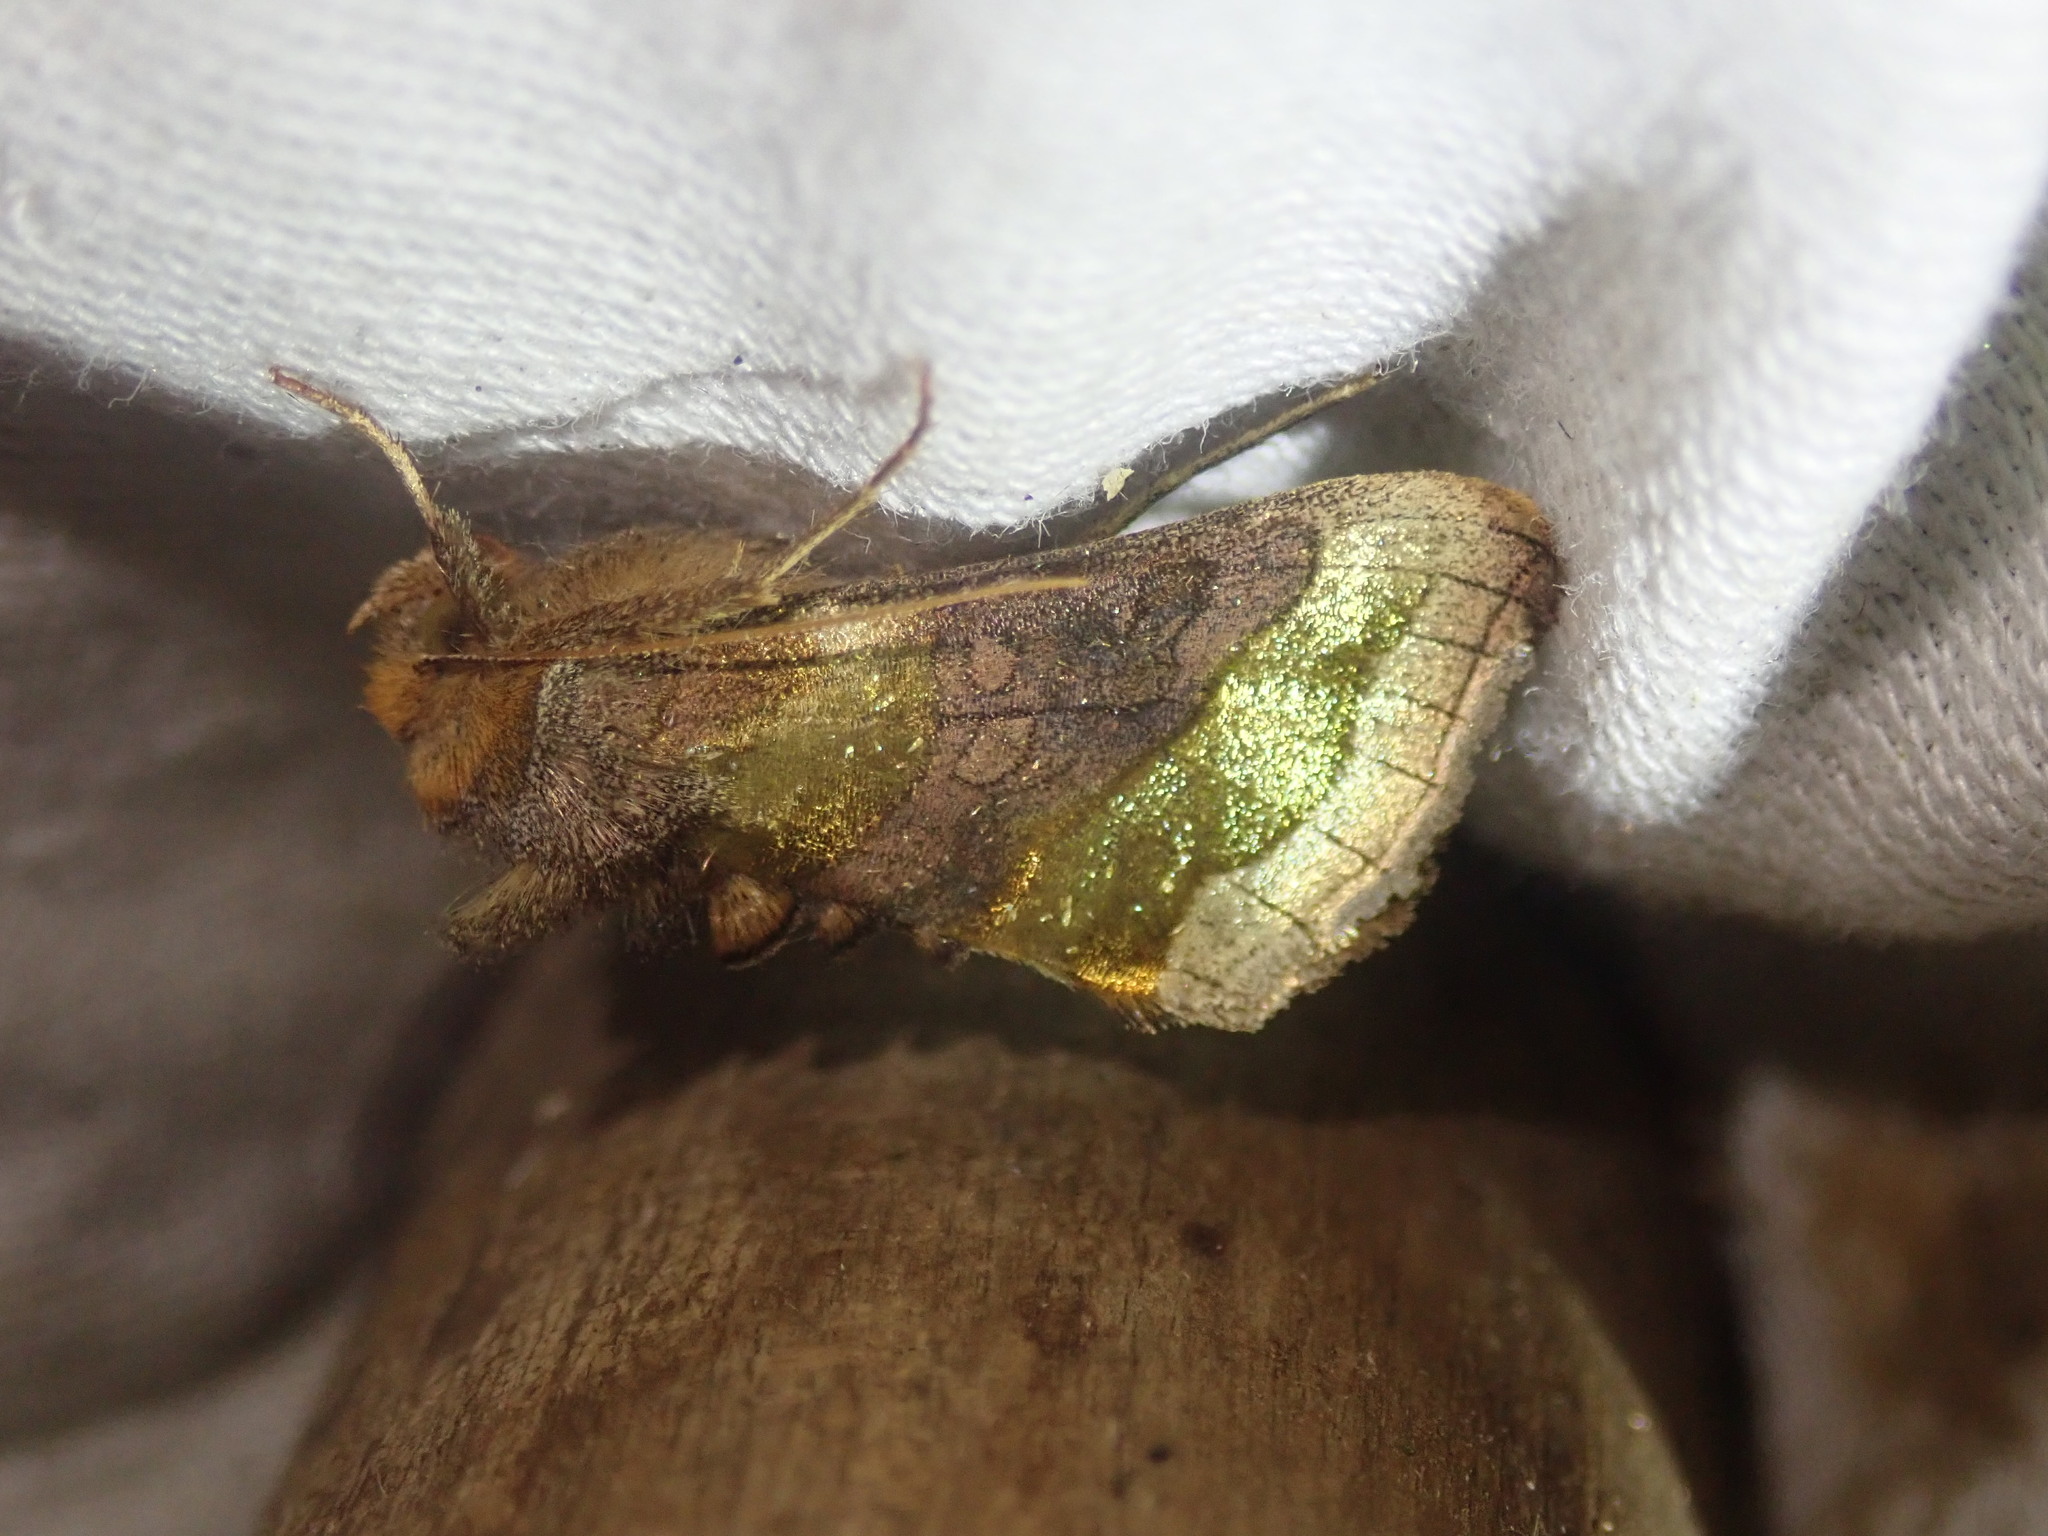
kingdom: Animalia
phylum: Arthropoda
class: Insecta
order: Lepidoptera
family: Noctuidae
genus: Diachrysia
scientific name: Diachrysia chrysitis
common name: Burnished brass
